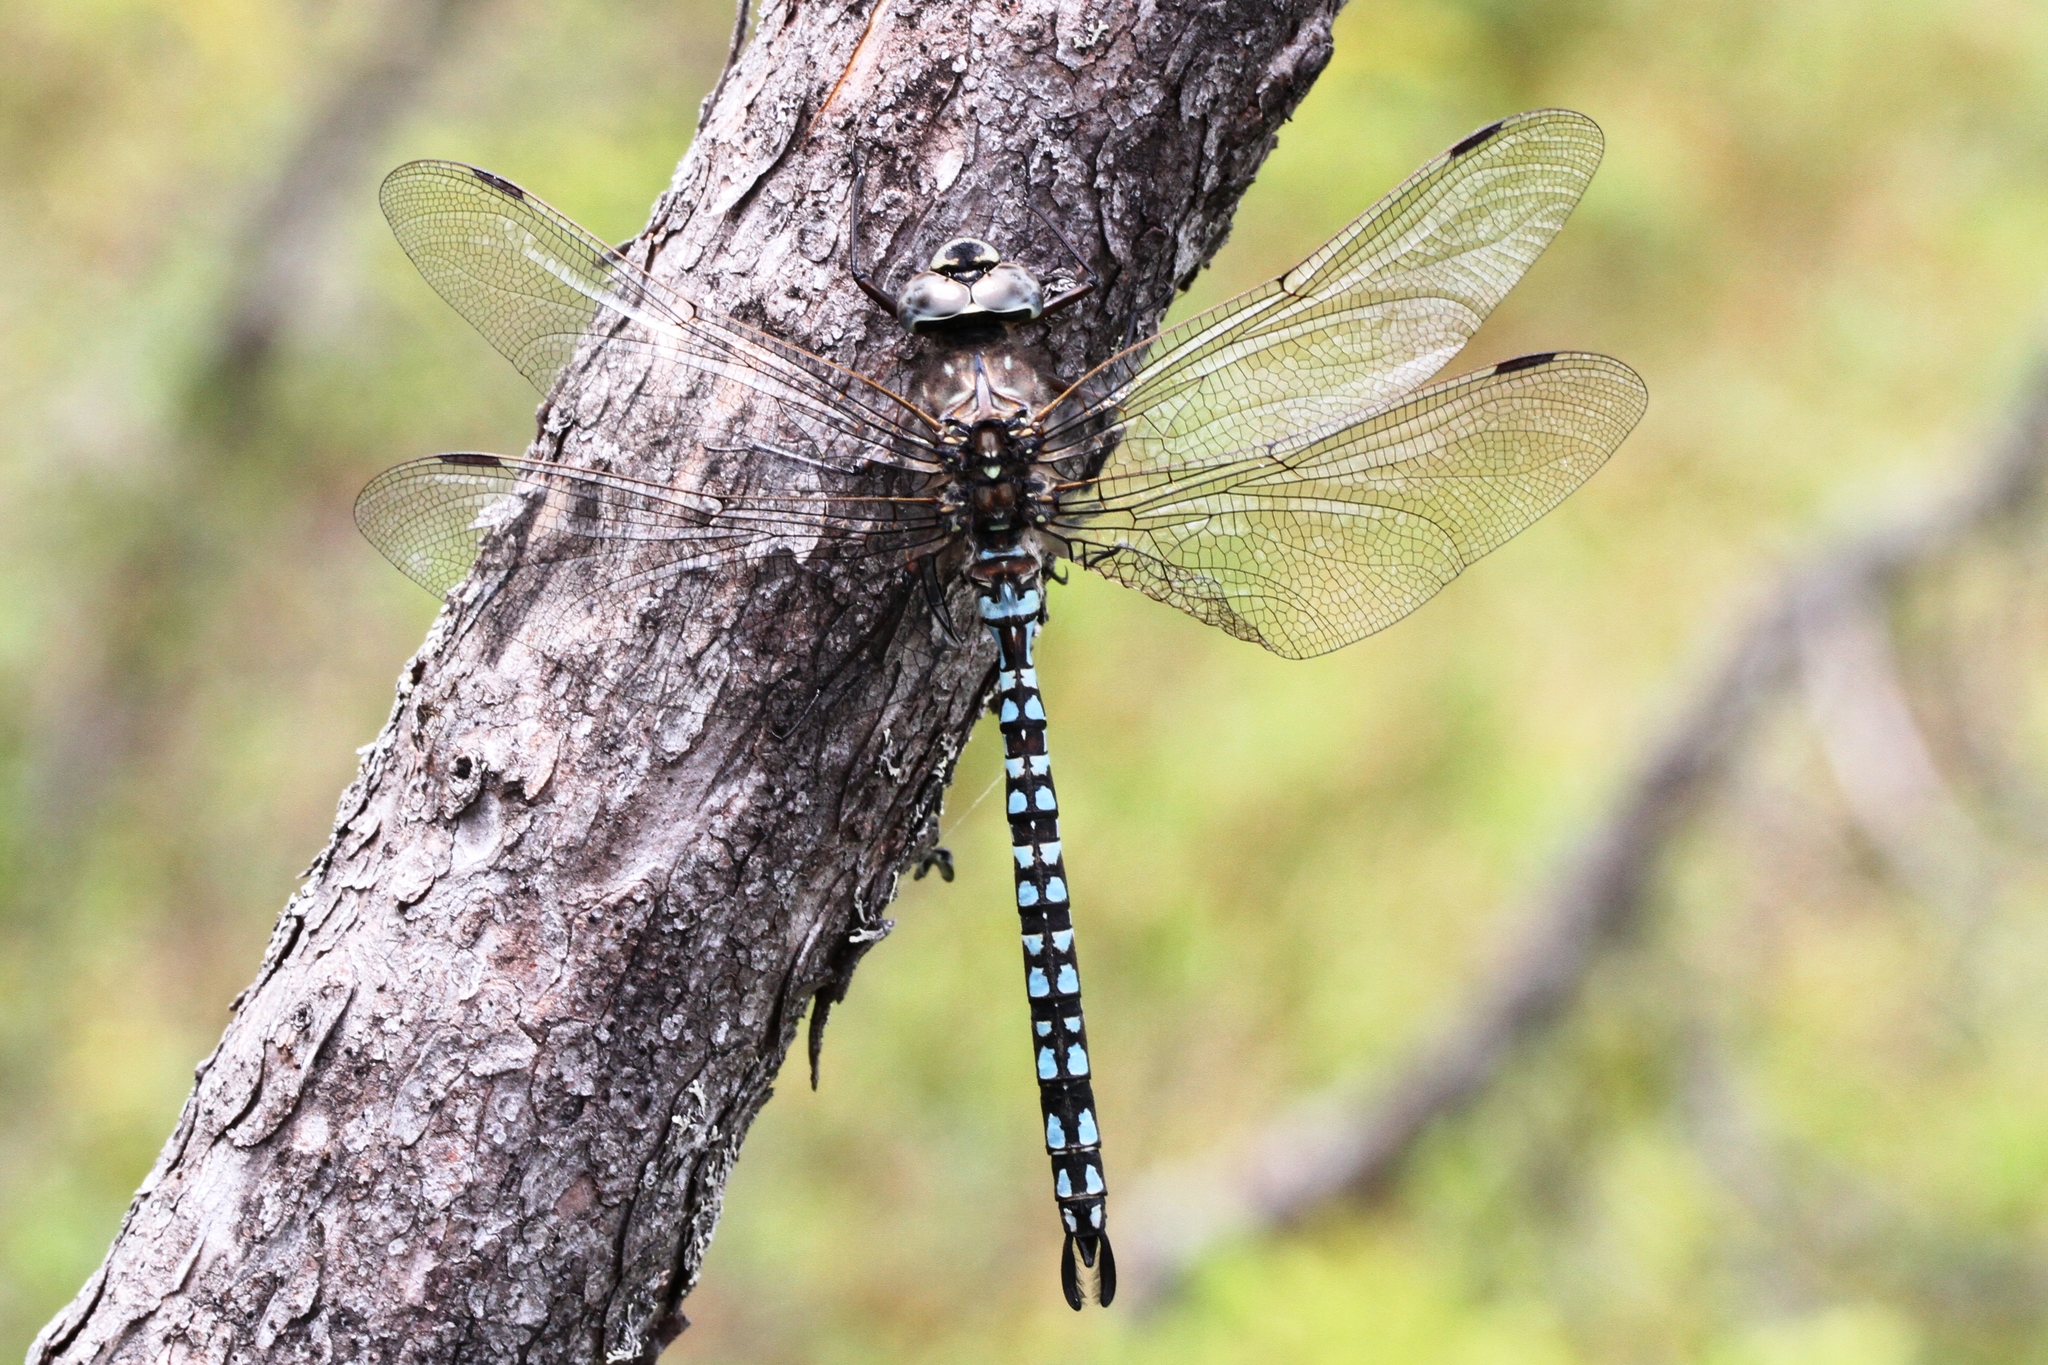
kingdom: Animalia
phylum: Arthropoda
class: Insecta
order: Odonata
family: Aeshnidae
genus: Aeshna
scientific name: Aeshna septentrionalis
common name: Azure darner
